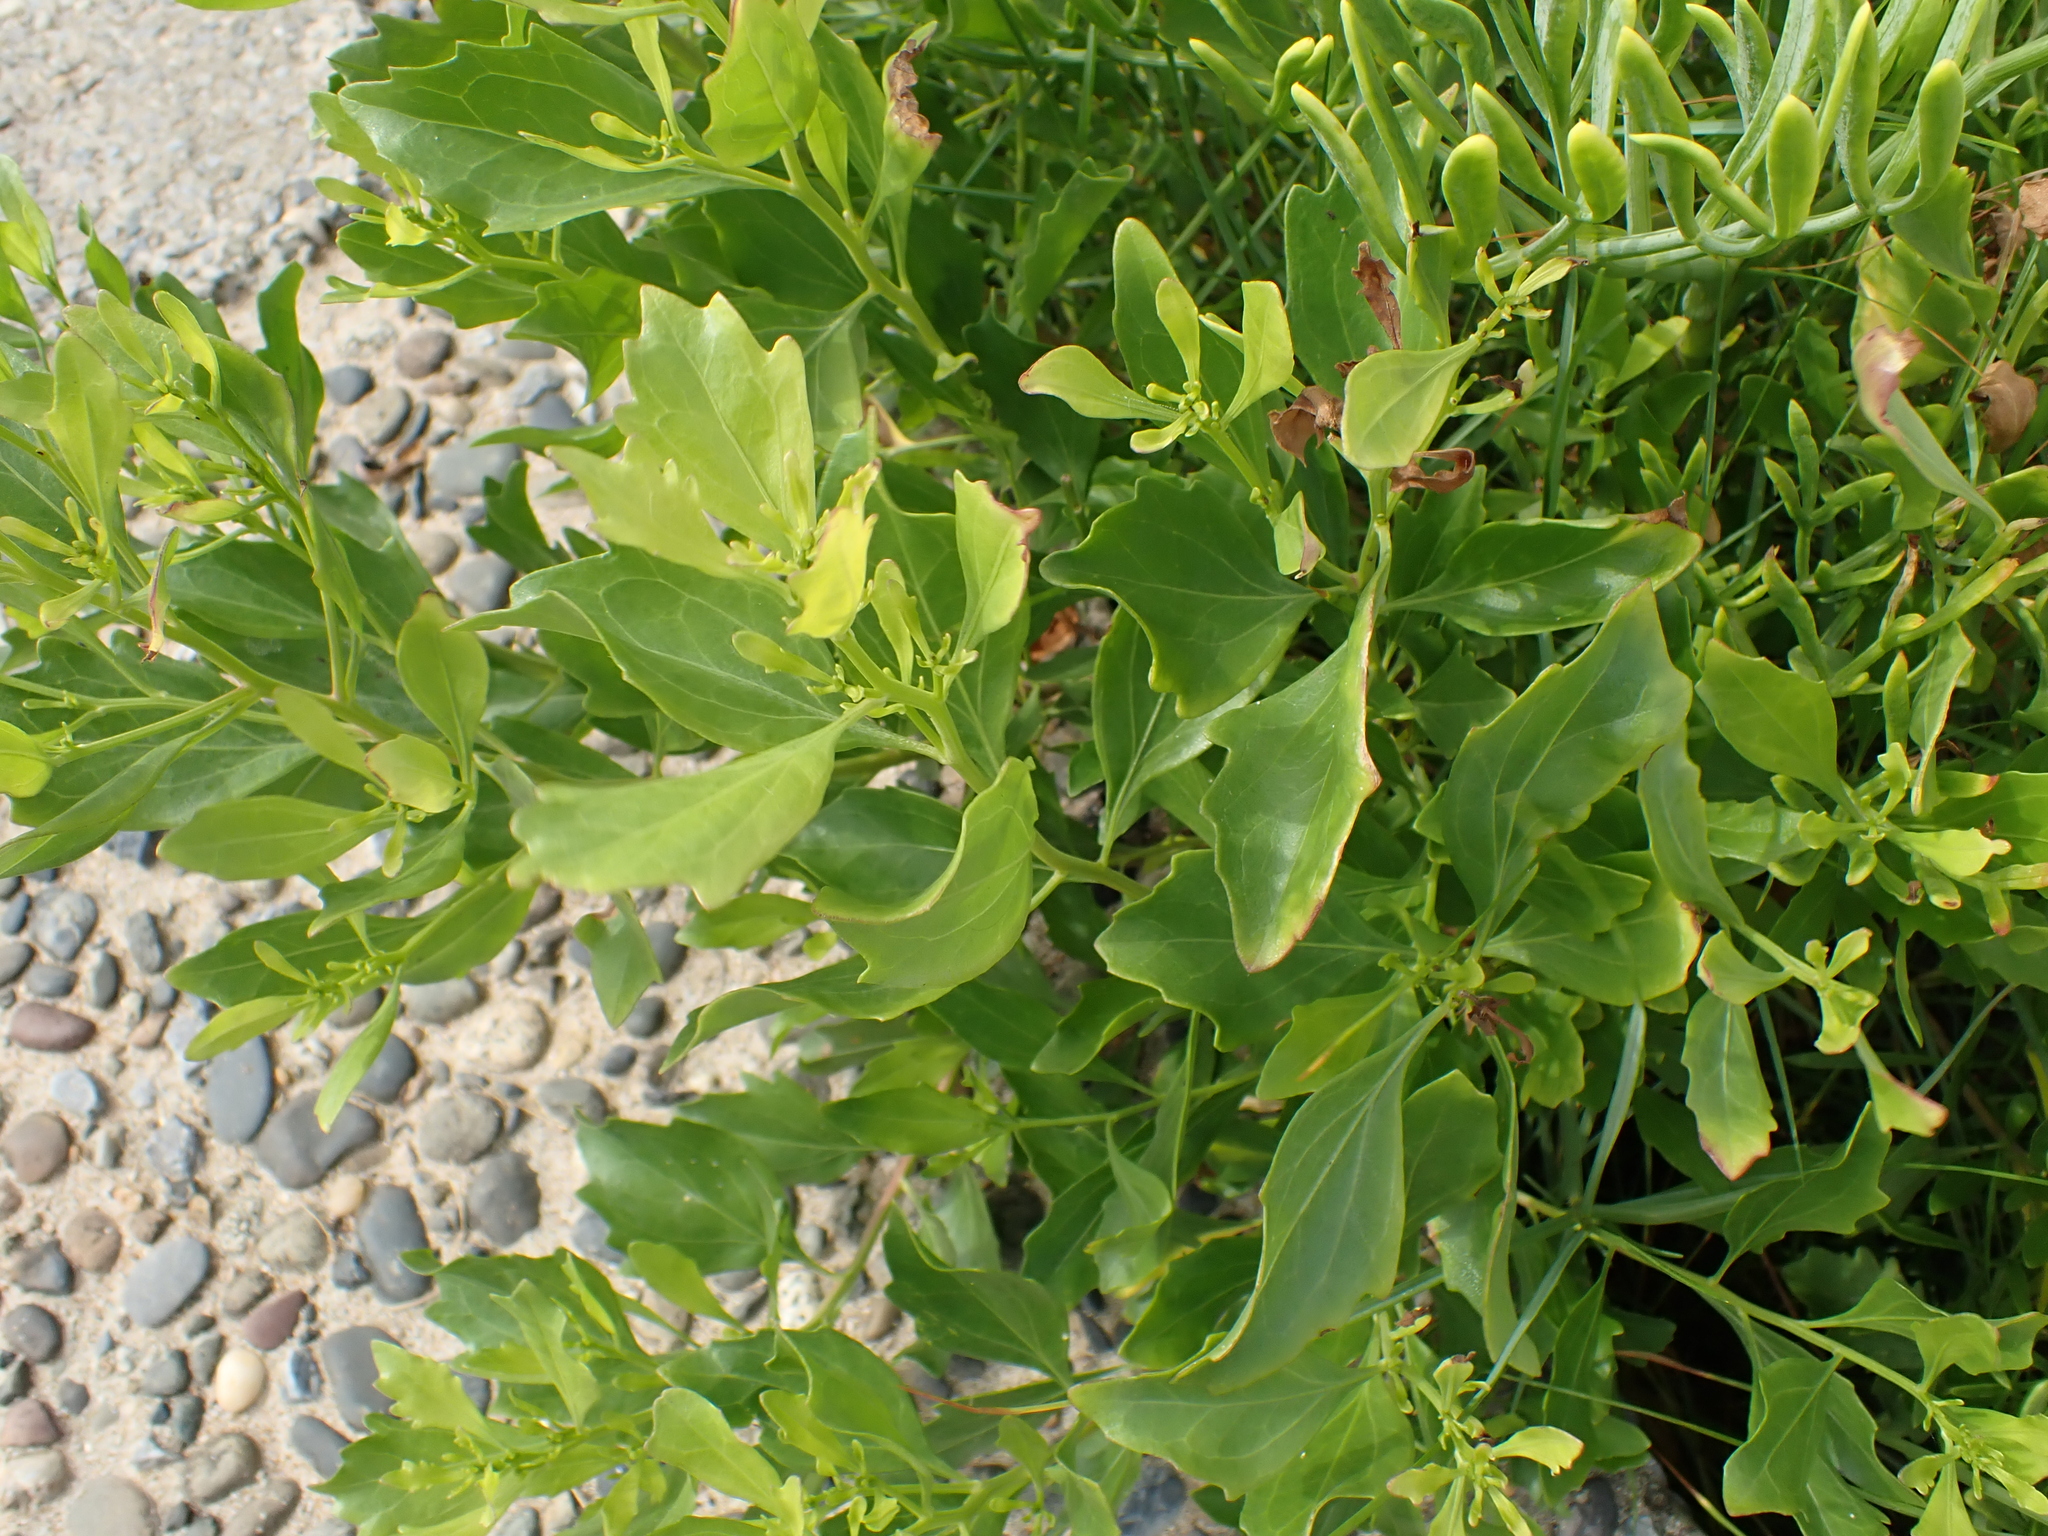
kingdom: Plantae
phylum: Tracheophyta
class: Magnoliopsida
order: Asterales
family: Asteraceae
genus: Baccharis
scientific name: Baccharis halimifolia
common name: Eastern baccharis
